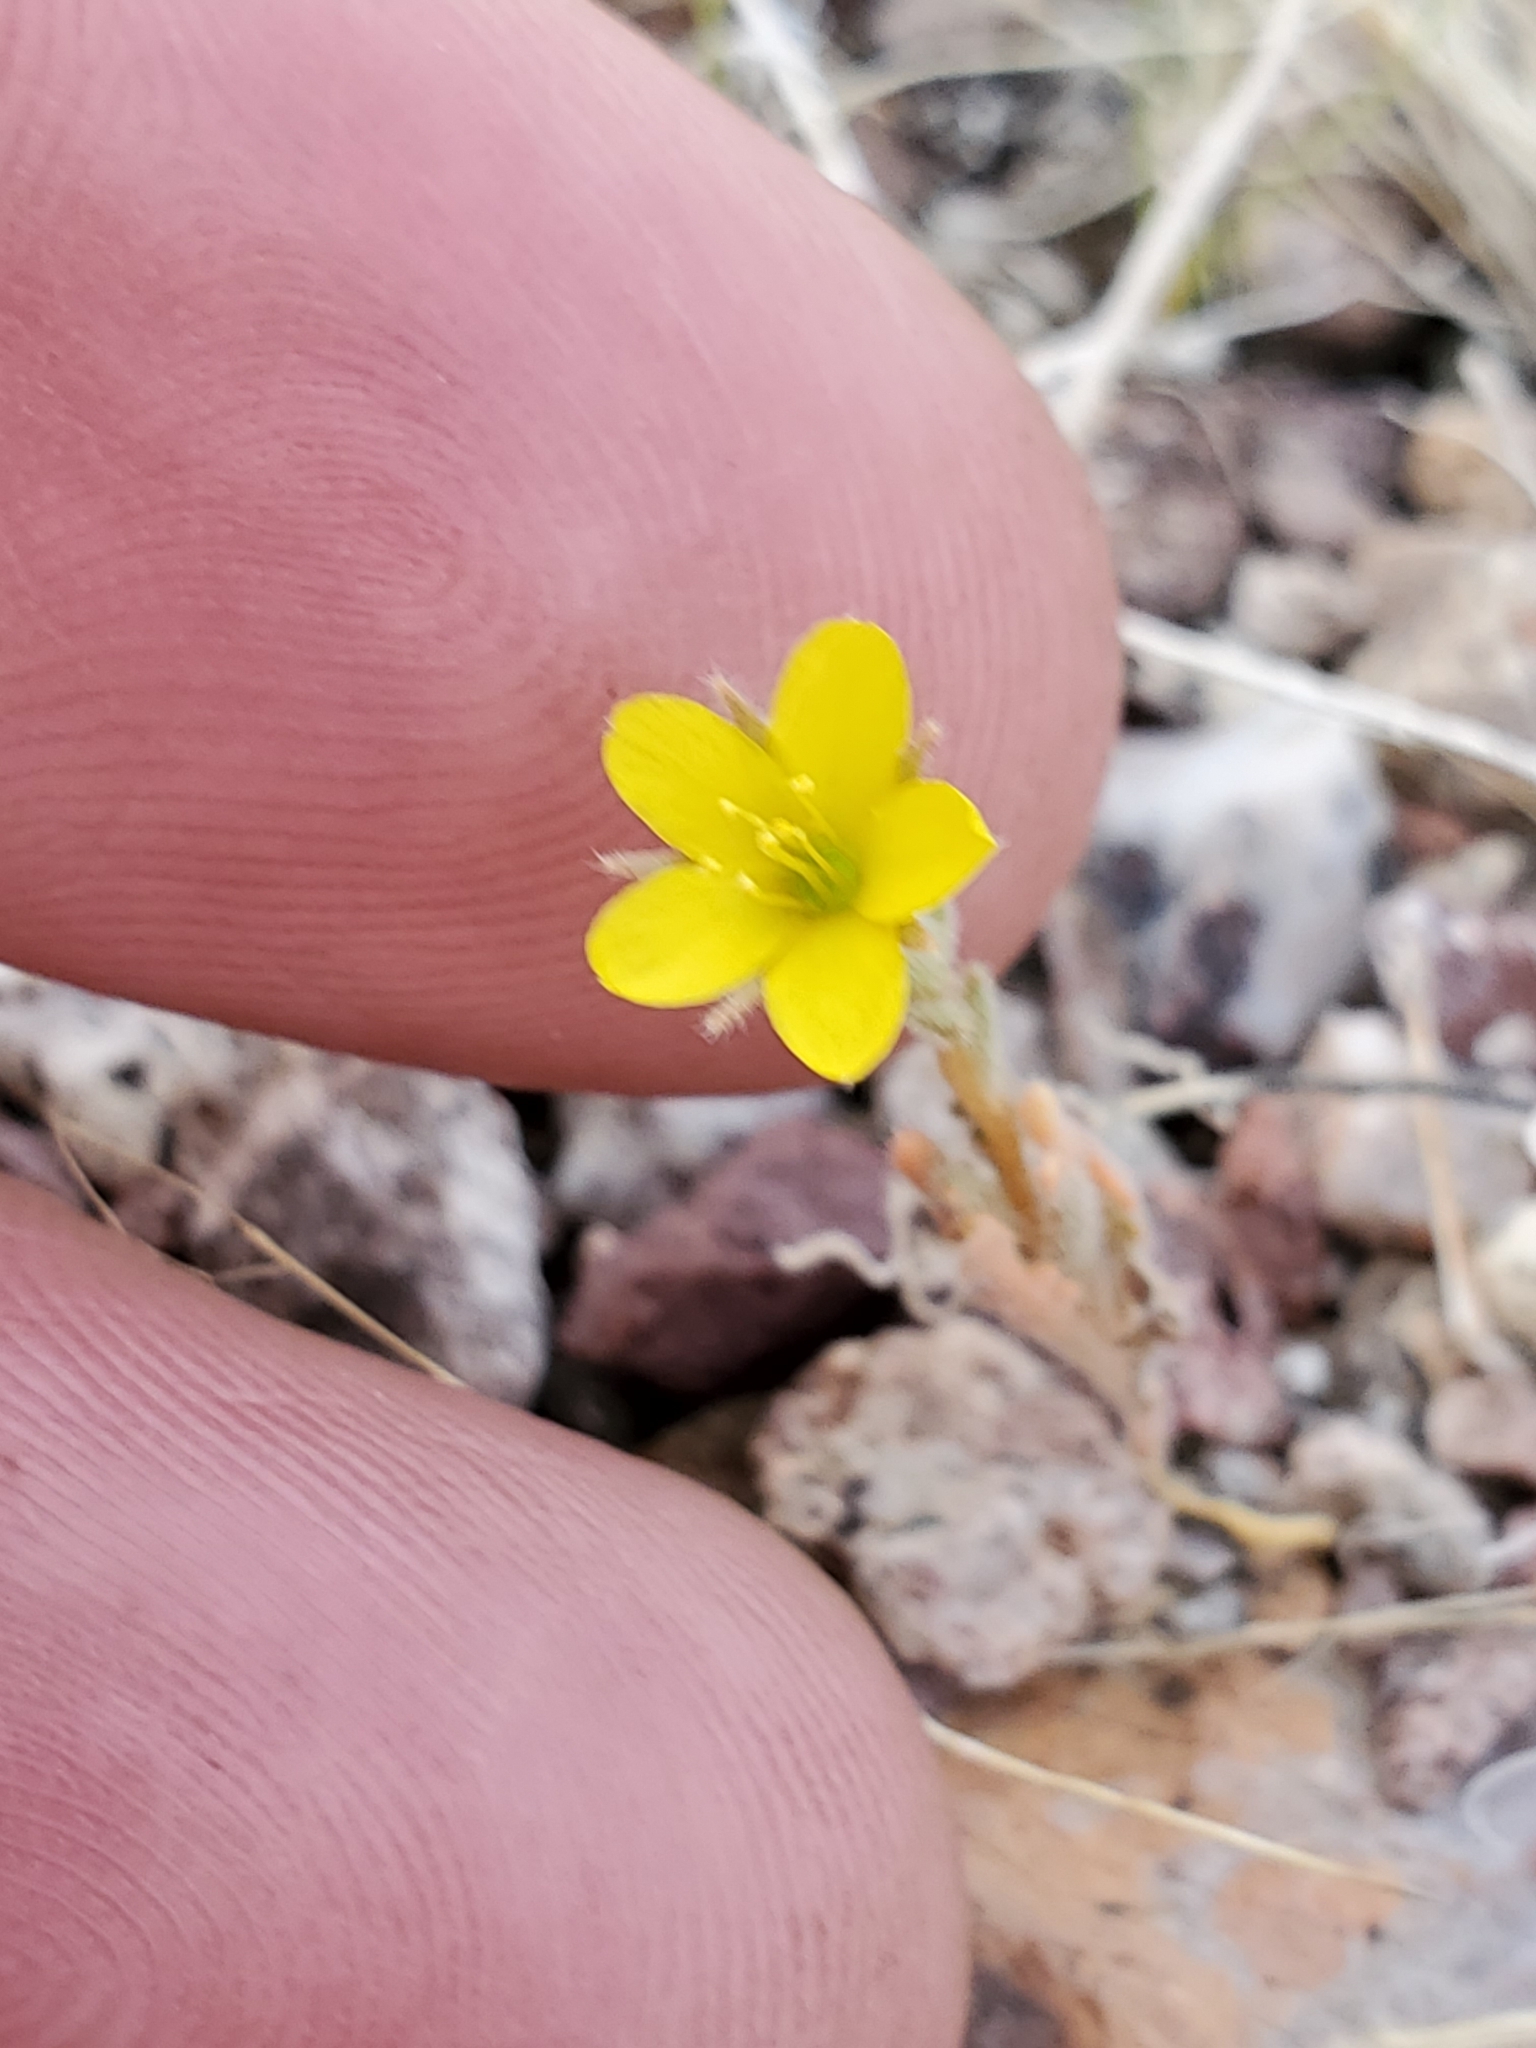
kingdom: Plantae
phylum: Tracheophyta
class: Magnoliopsida
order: Cornales
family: Loasaceae
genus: Mentzelia
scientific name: Mentzelia albicaulis
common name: White-stem blazingstar
